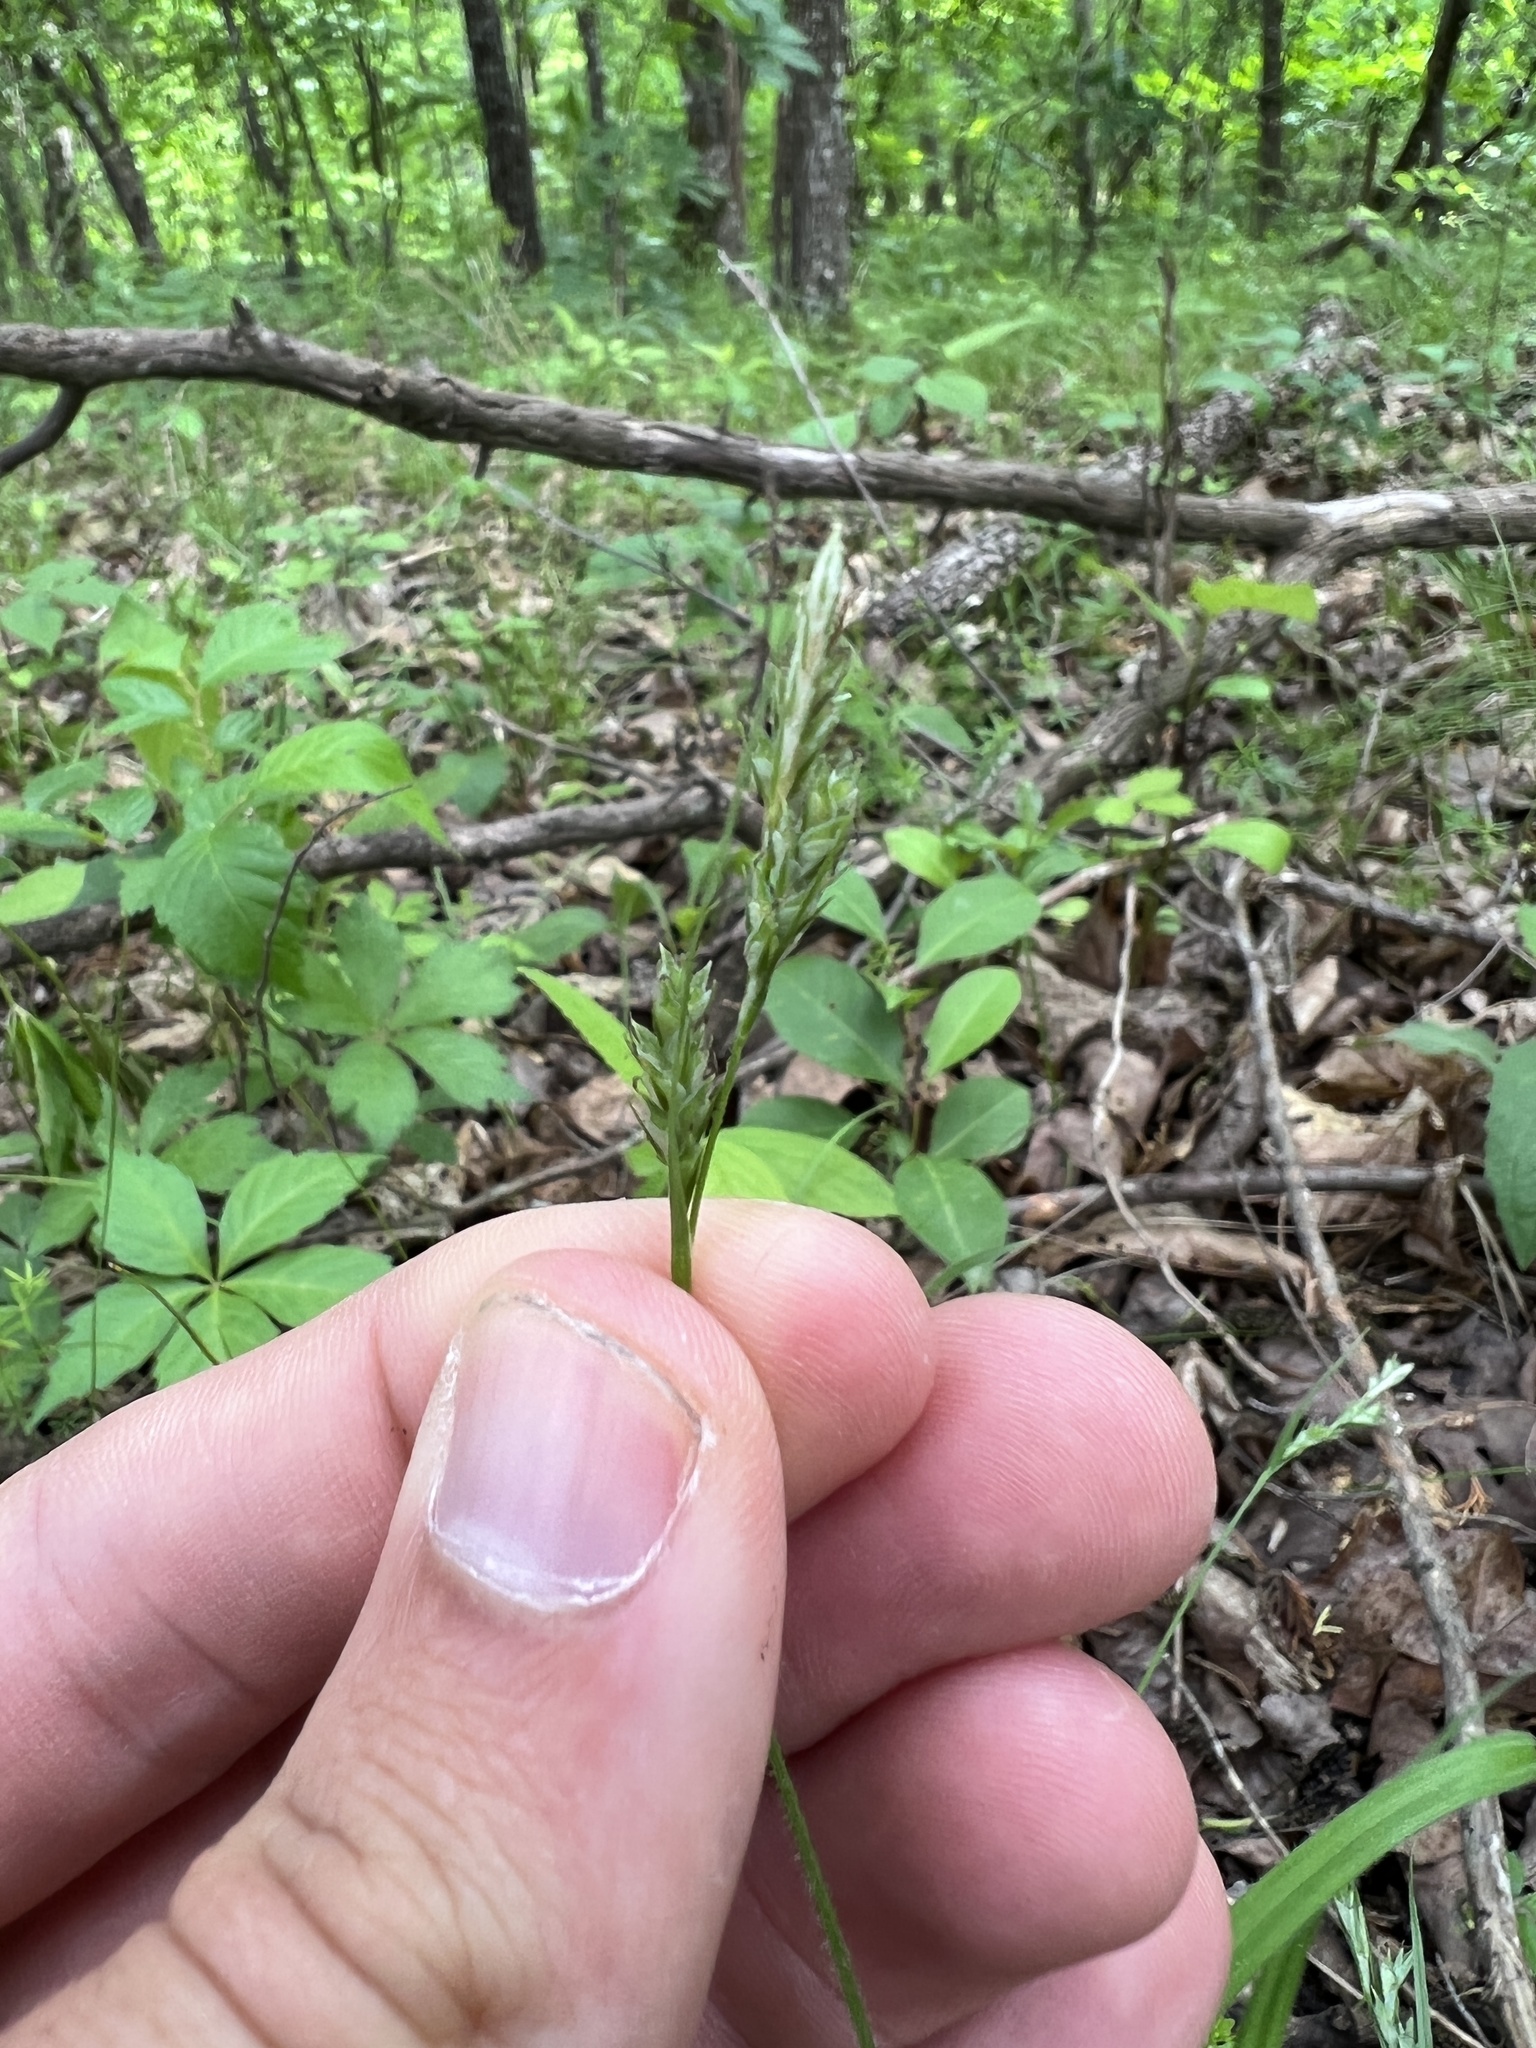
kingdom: Plantae
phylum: Tracheophyta
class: Liliopsida
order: Poales
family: Cyperaceae
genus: Carex
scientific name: Carex hirtifolia
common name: Hairy sedge
